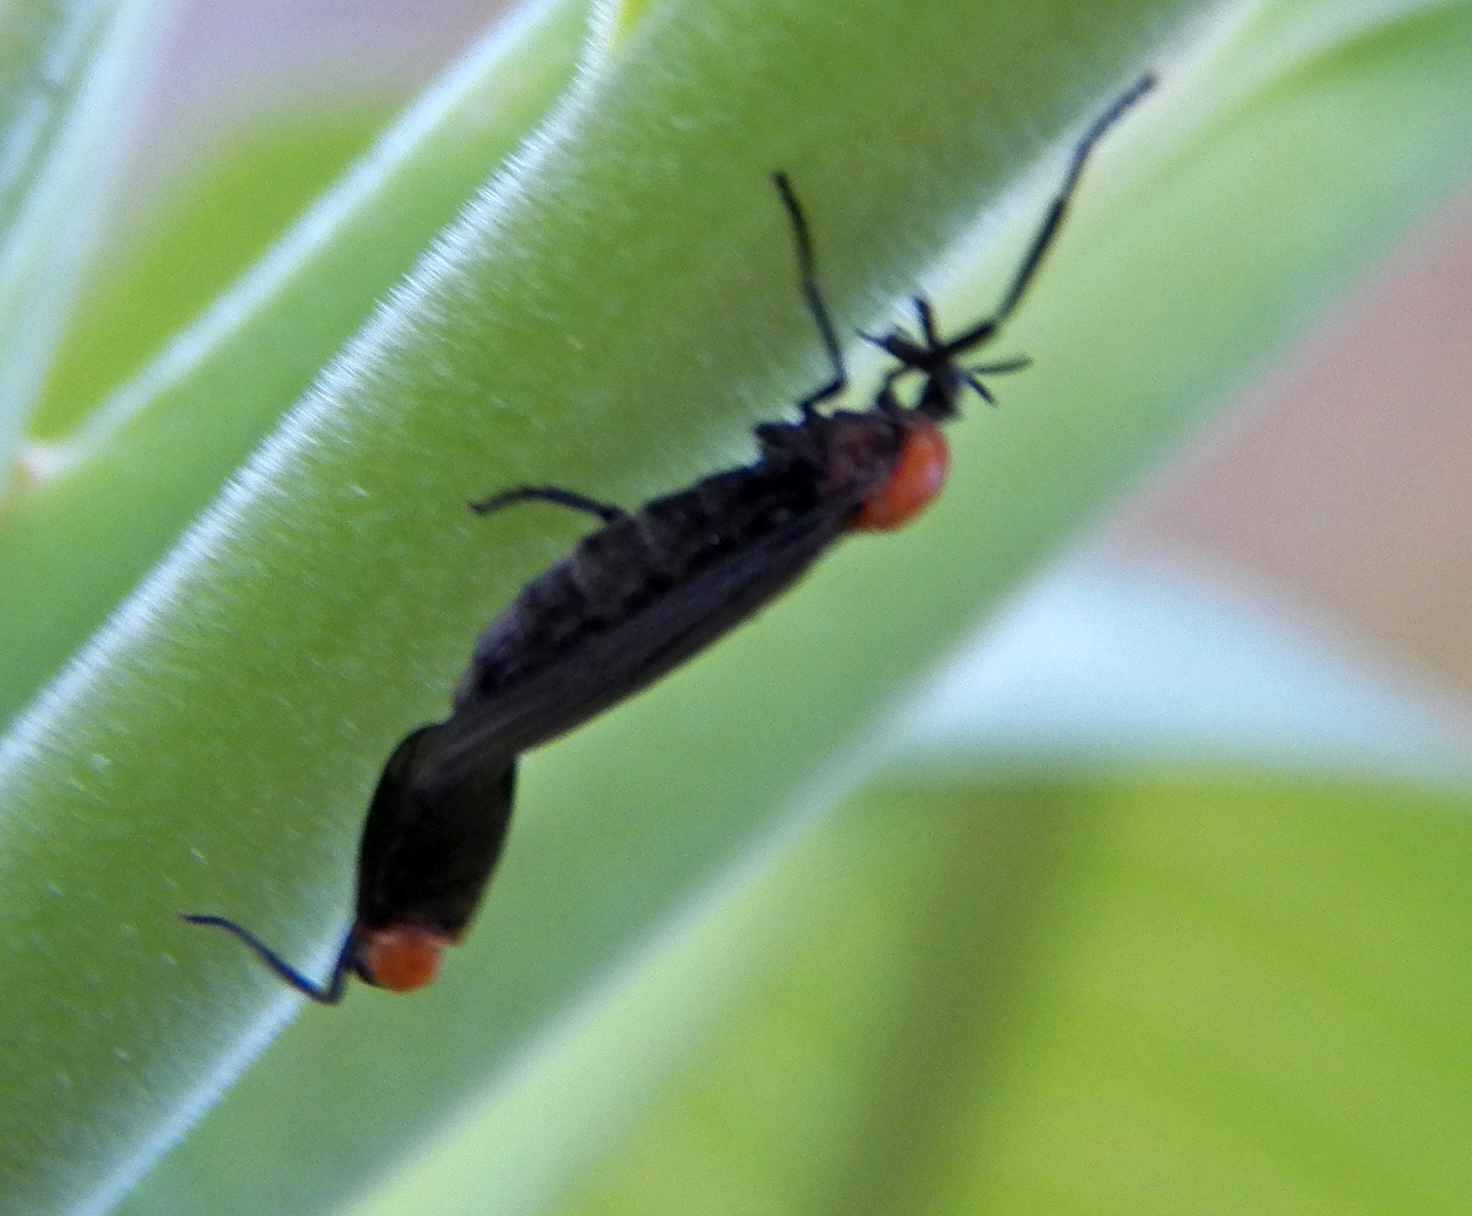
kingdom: Animalia
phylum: Arthropoda
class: Insecta
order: Diptera
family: Bibionidae
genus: Plecia
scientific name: Plecia nearctica
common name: March fly
